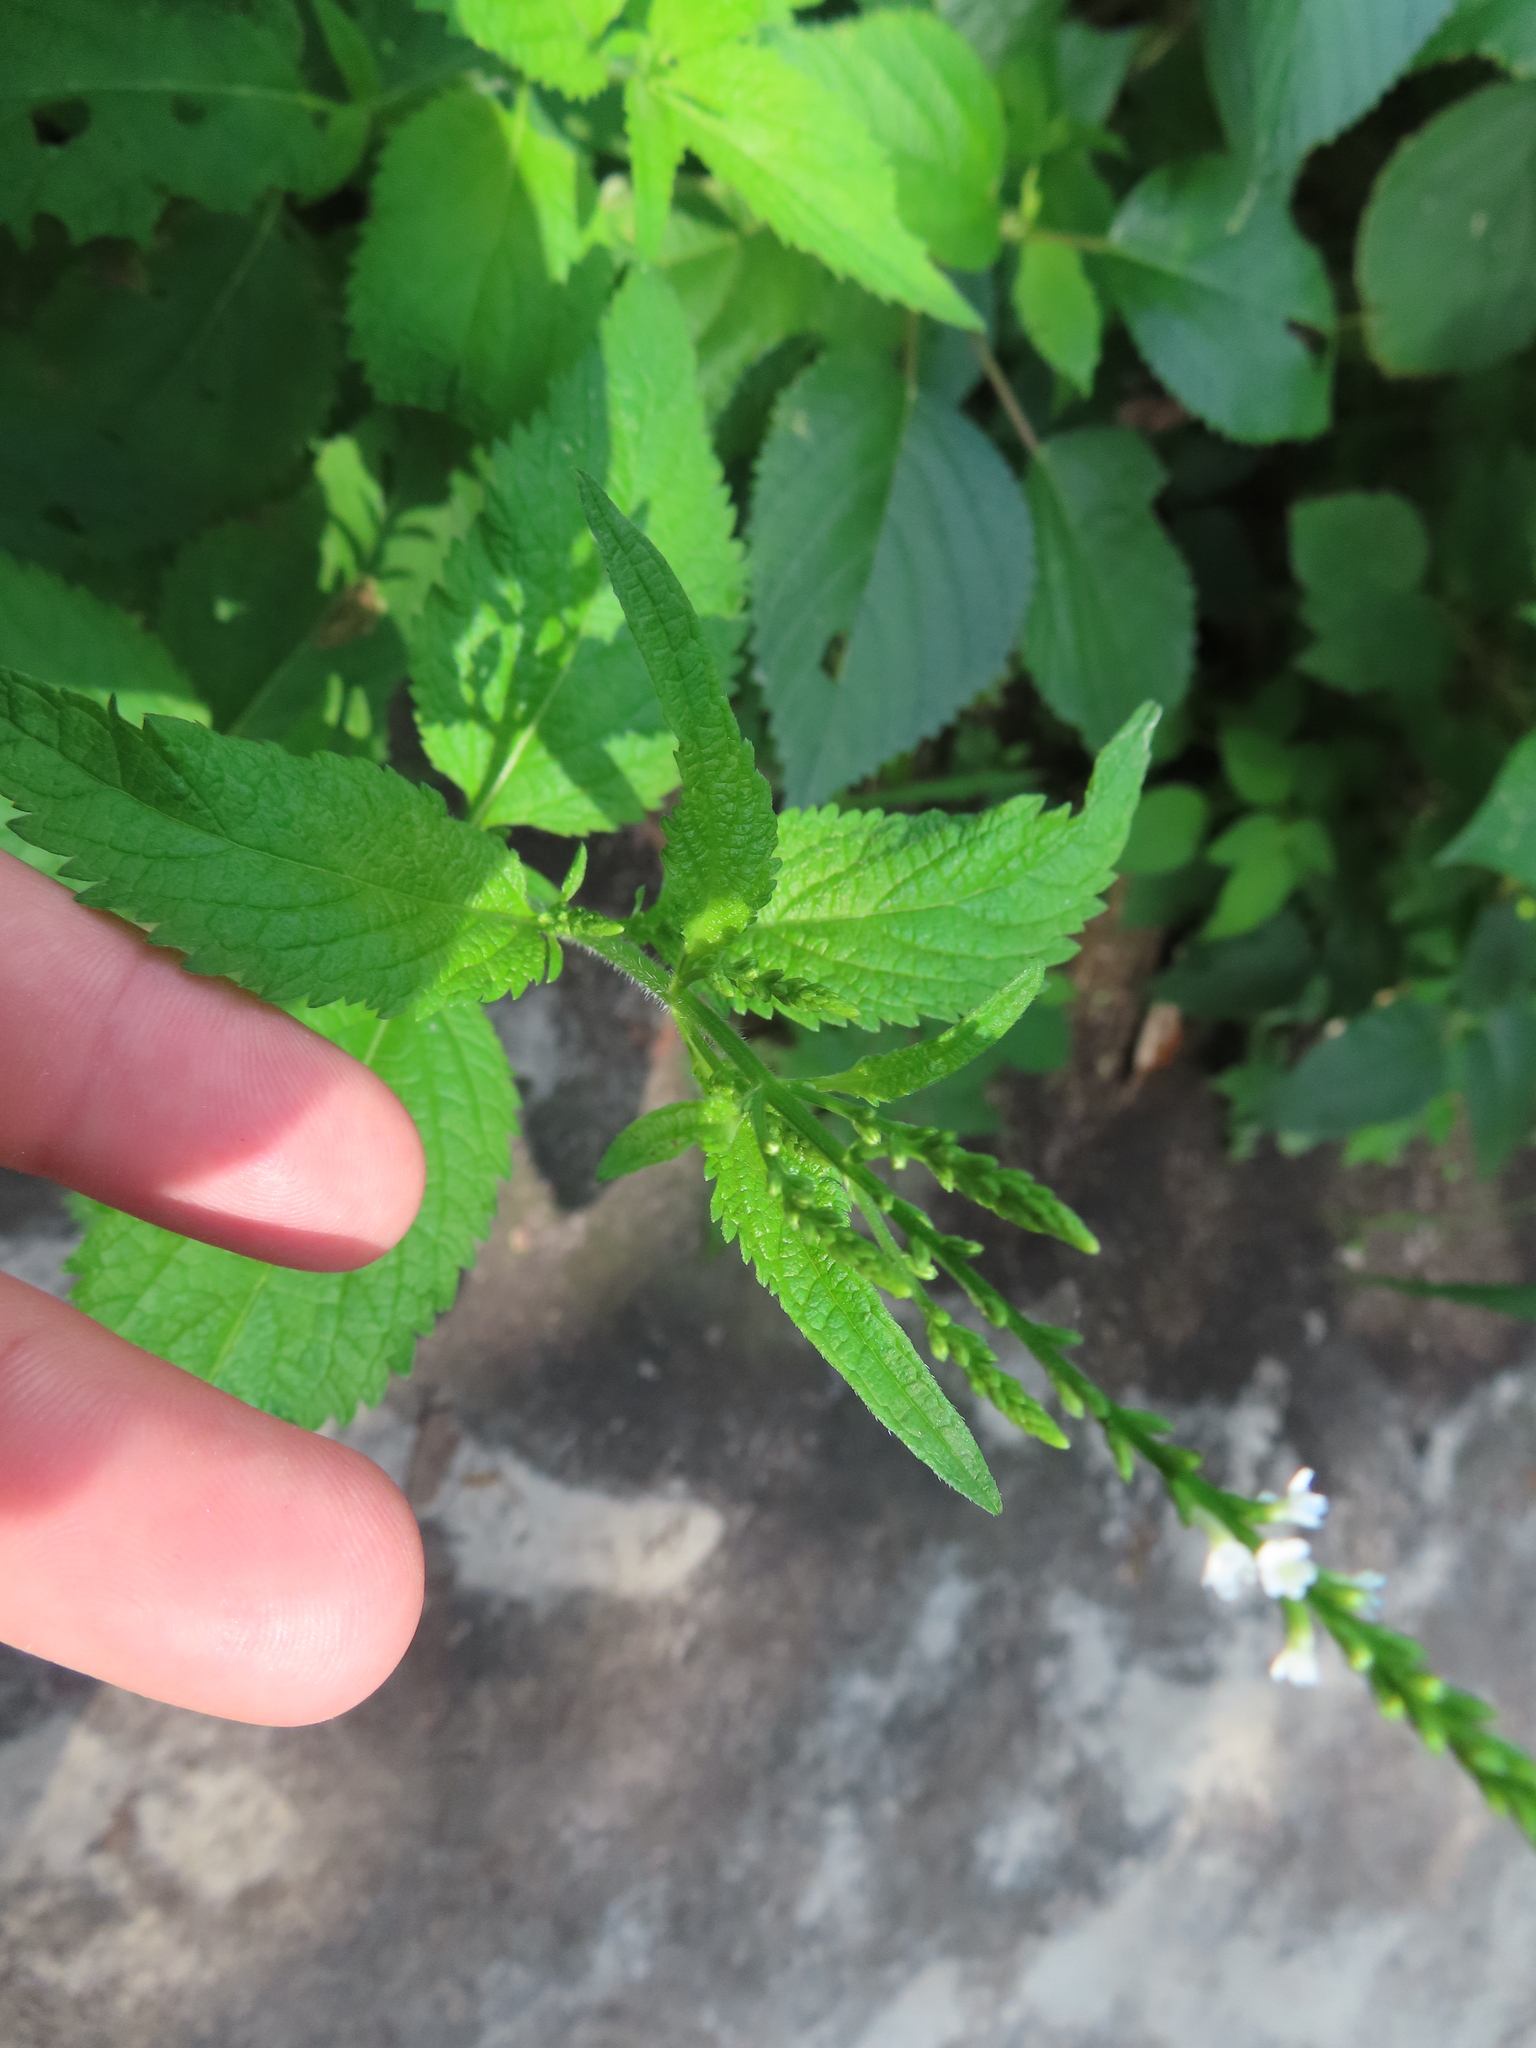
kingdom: Plantae
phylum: Tracheophyta
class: Magnoliopsida
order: Lamiales
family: Verbenaceae
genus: Verbena
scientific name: Verbena urticifolia
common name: Nettle-leaved vervain
